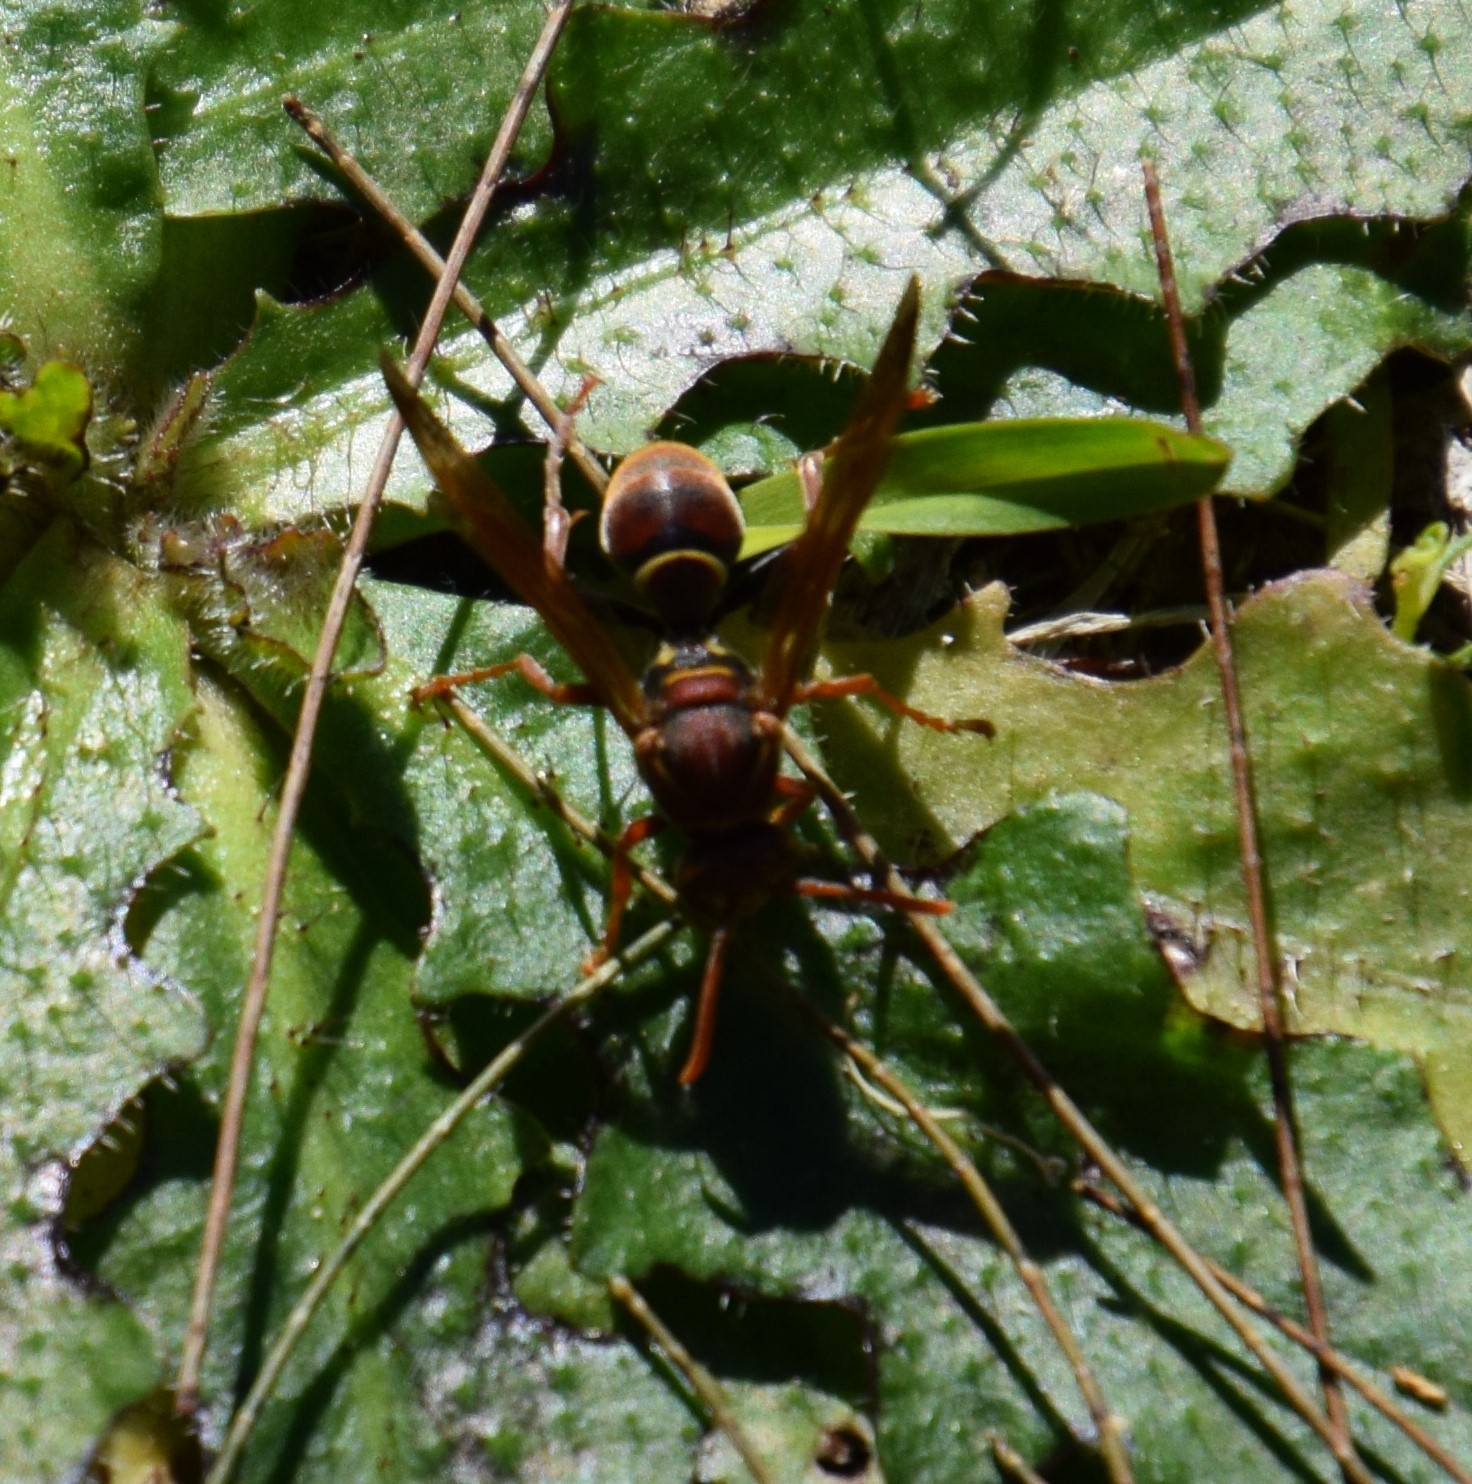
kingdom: Animalia
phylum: Arthropoda
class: Insecta
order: Hymenoptera
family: Eumenidae
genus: Polistes
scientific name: Polistes humilis
